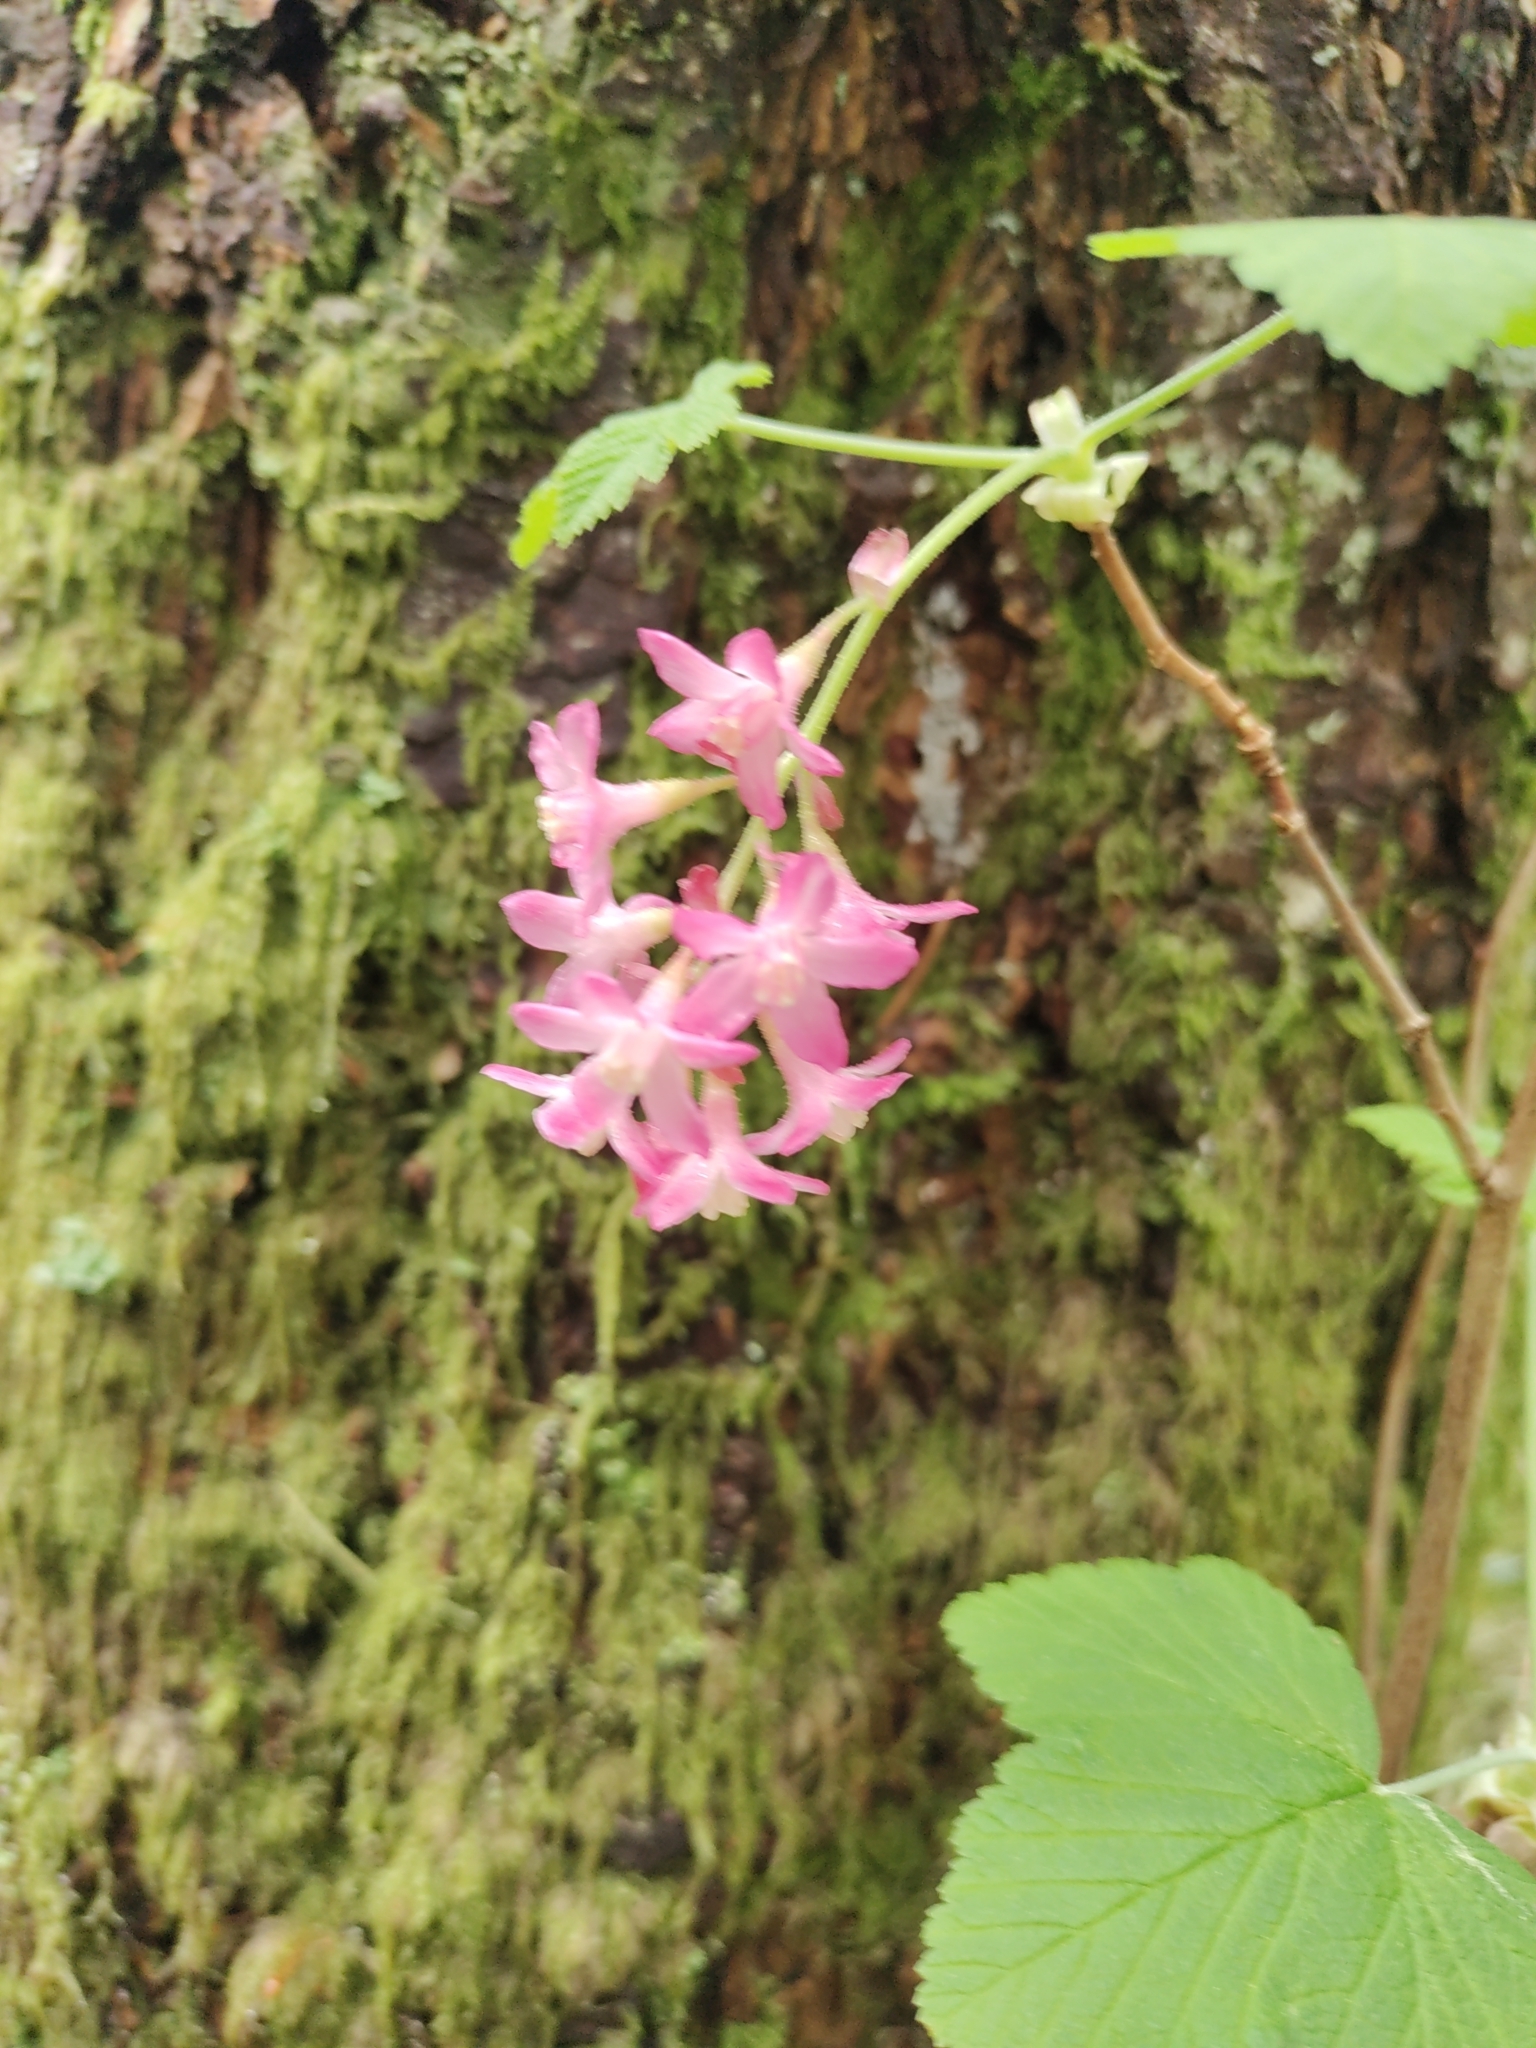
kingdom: Plantae
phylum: Tracheophyta
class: Magnoliopsida
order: Saxifragales
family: Grossulariaceae
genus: Ribes
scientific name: Ribes sanguineum
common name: Flowering currant
